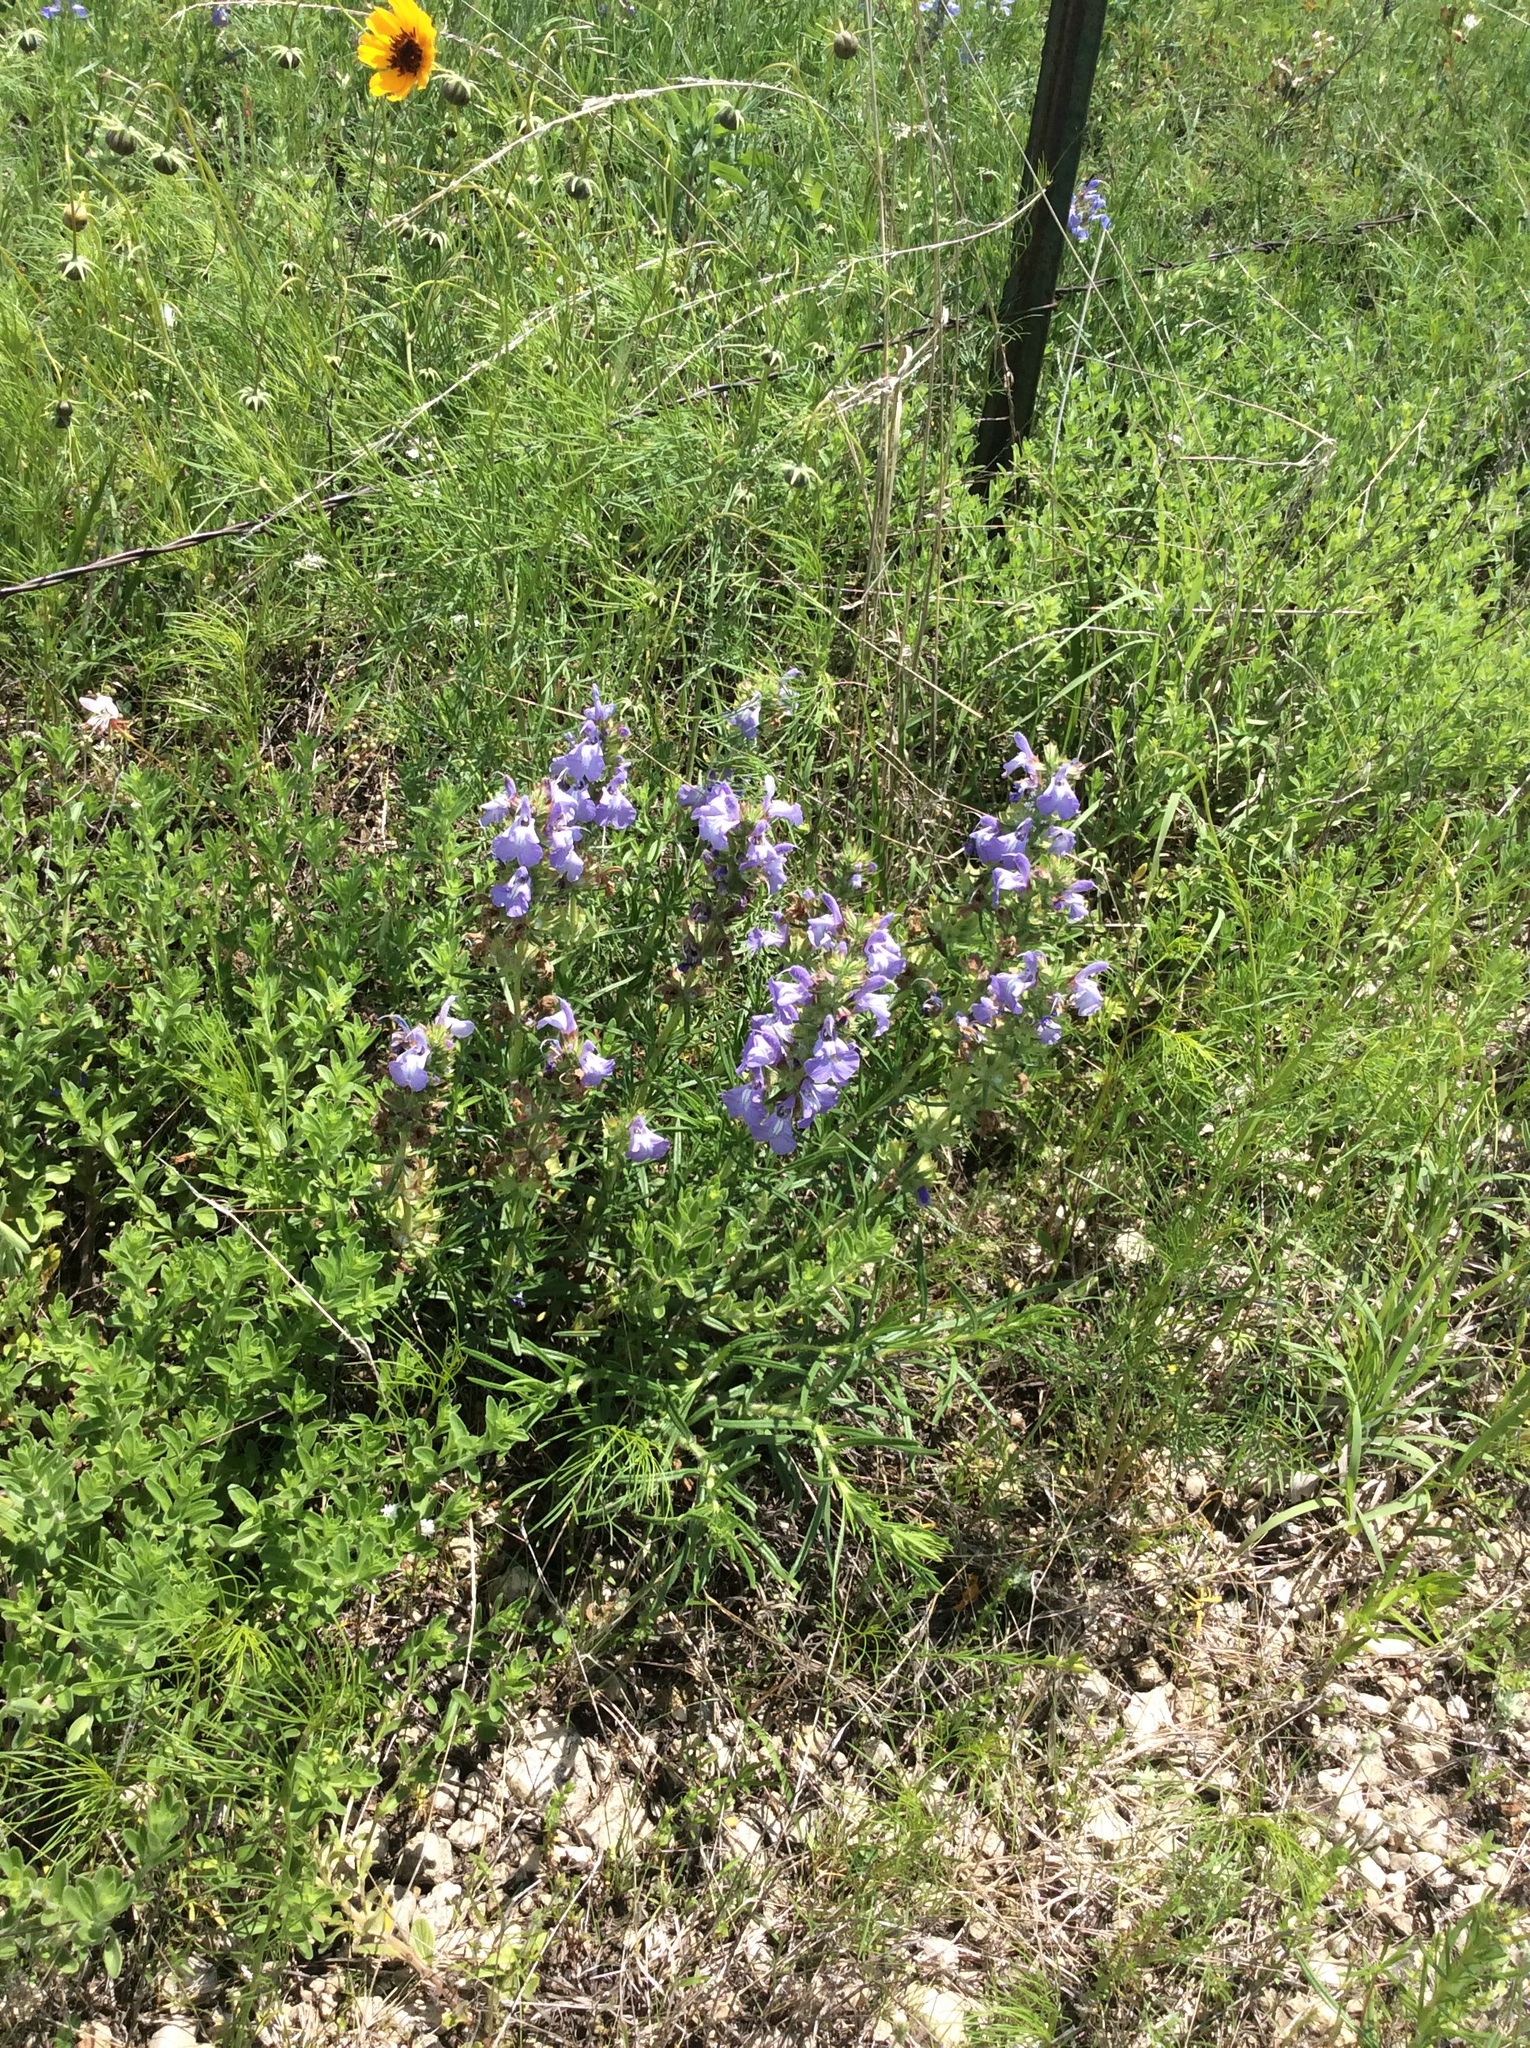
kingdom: Plantae
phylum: Tracheophyta
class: Magnoliopsida
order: Lamiales
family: Lamiaceae
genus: Salvia
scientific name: Salvia engelmannii
